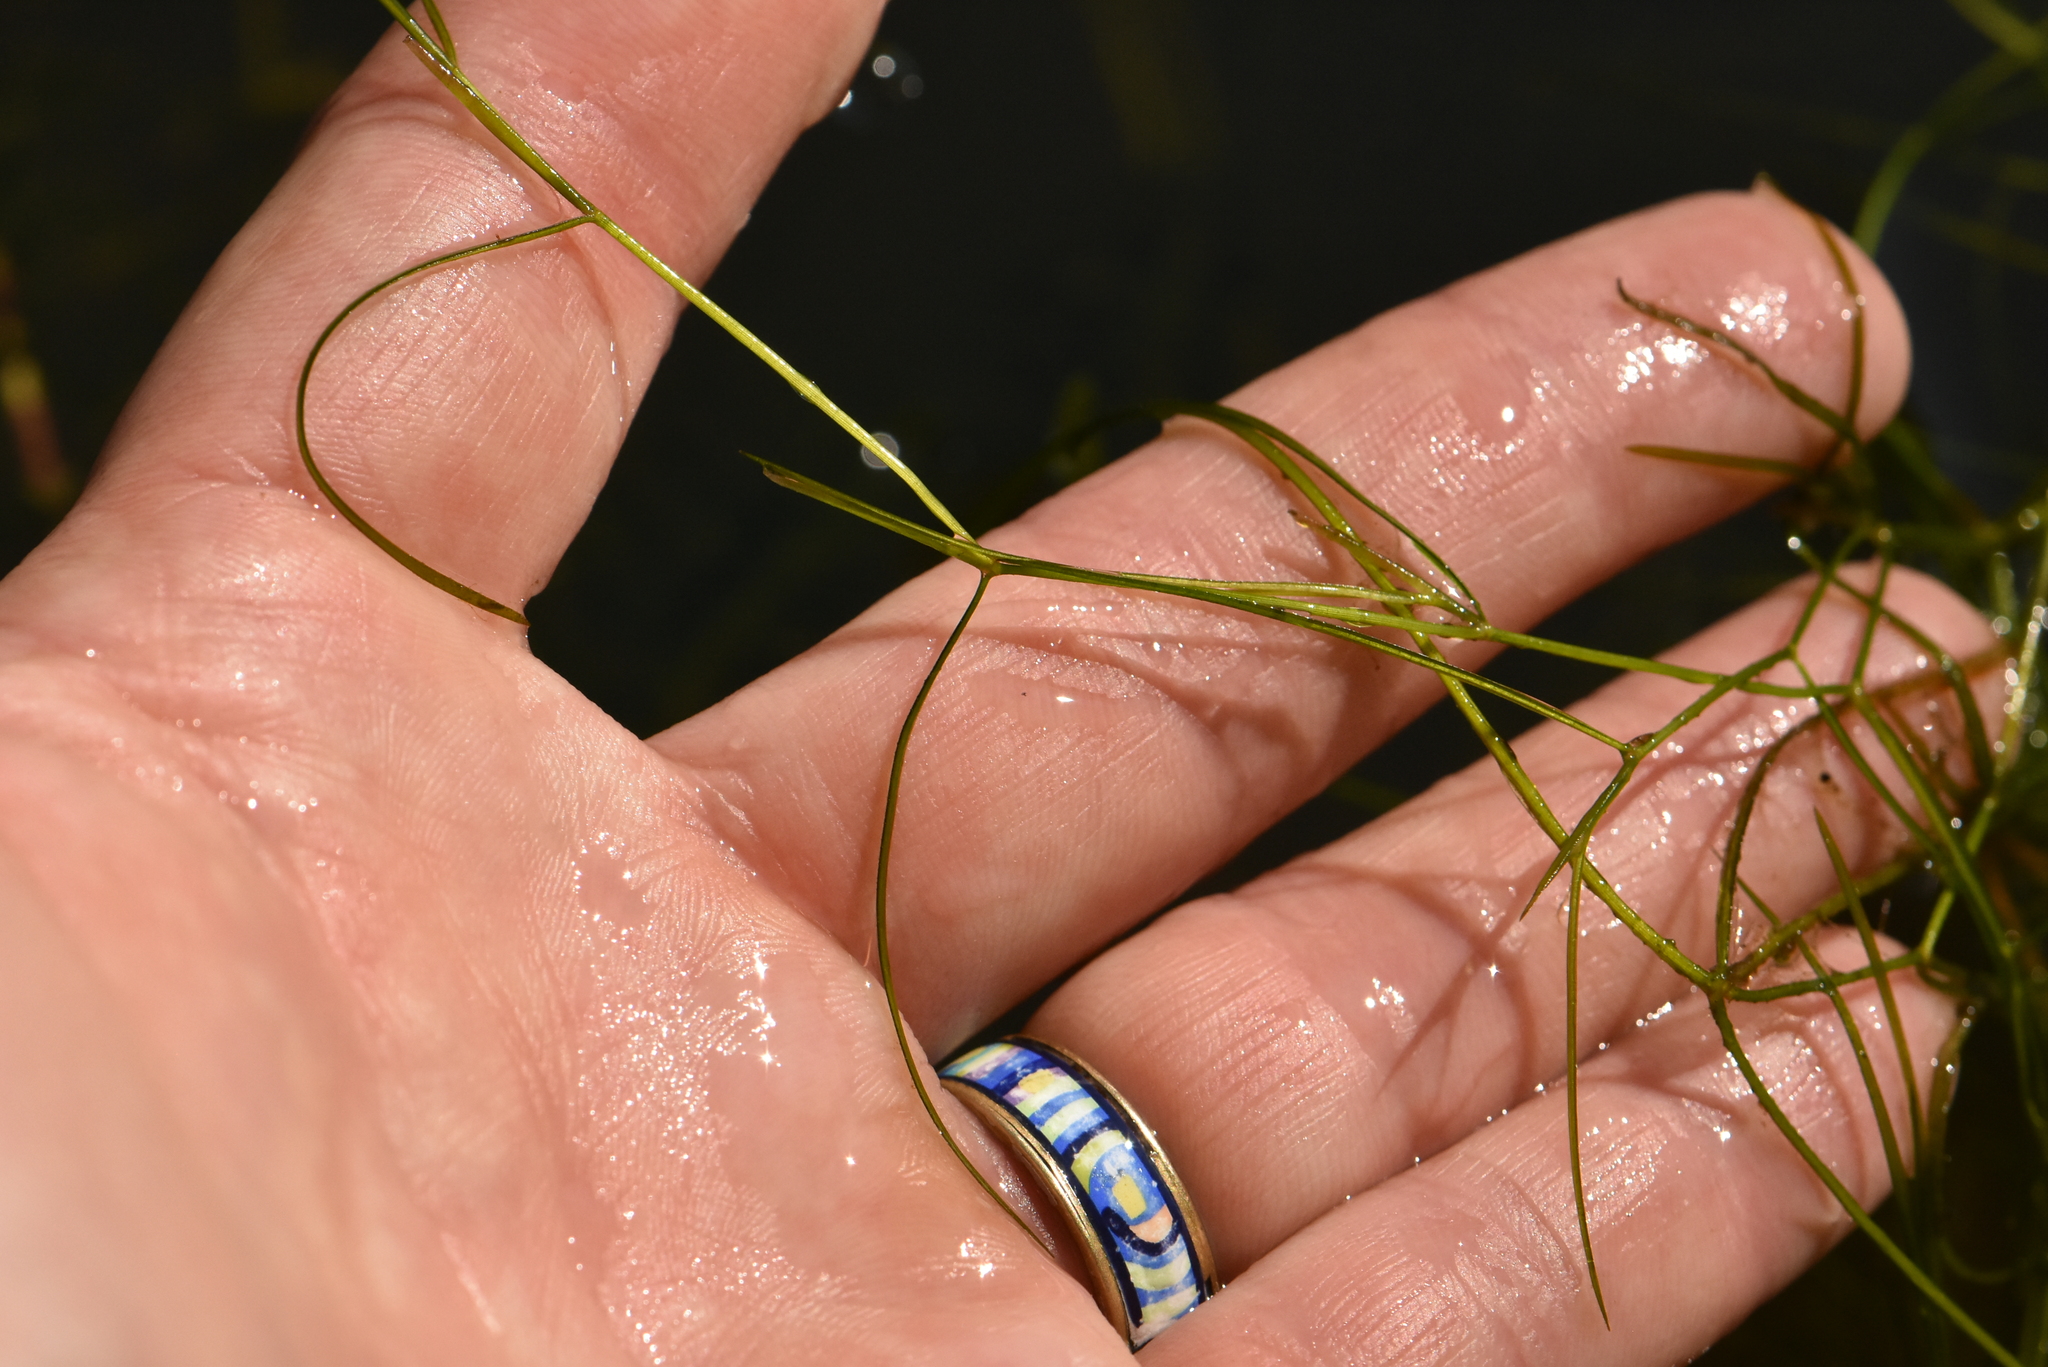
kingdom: Plantae
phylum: Tracheophyta
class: Liliopsida
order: Alismatales
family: Potamogetonaceae
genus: Potamogeton
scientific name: Potamogeton trichoides
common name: Hairlike pondweed
